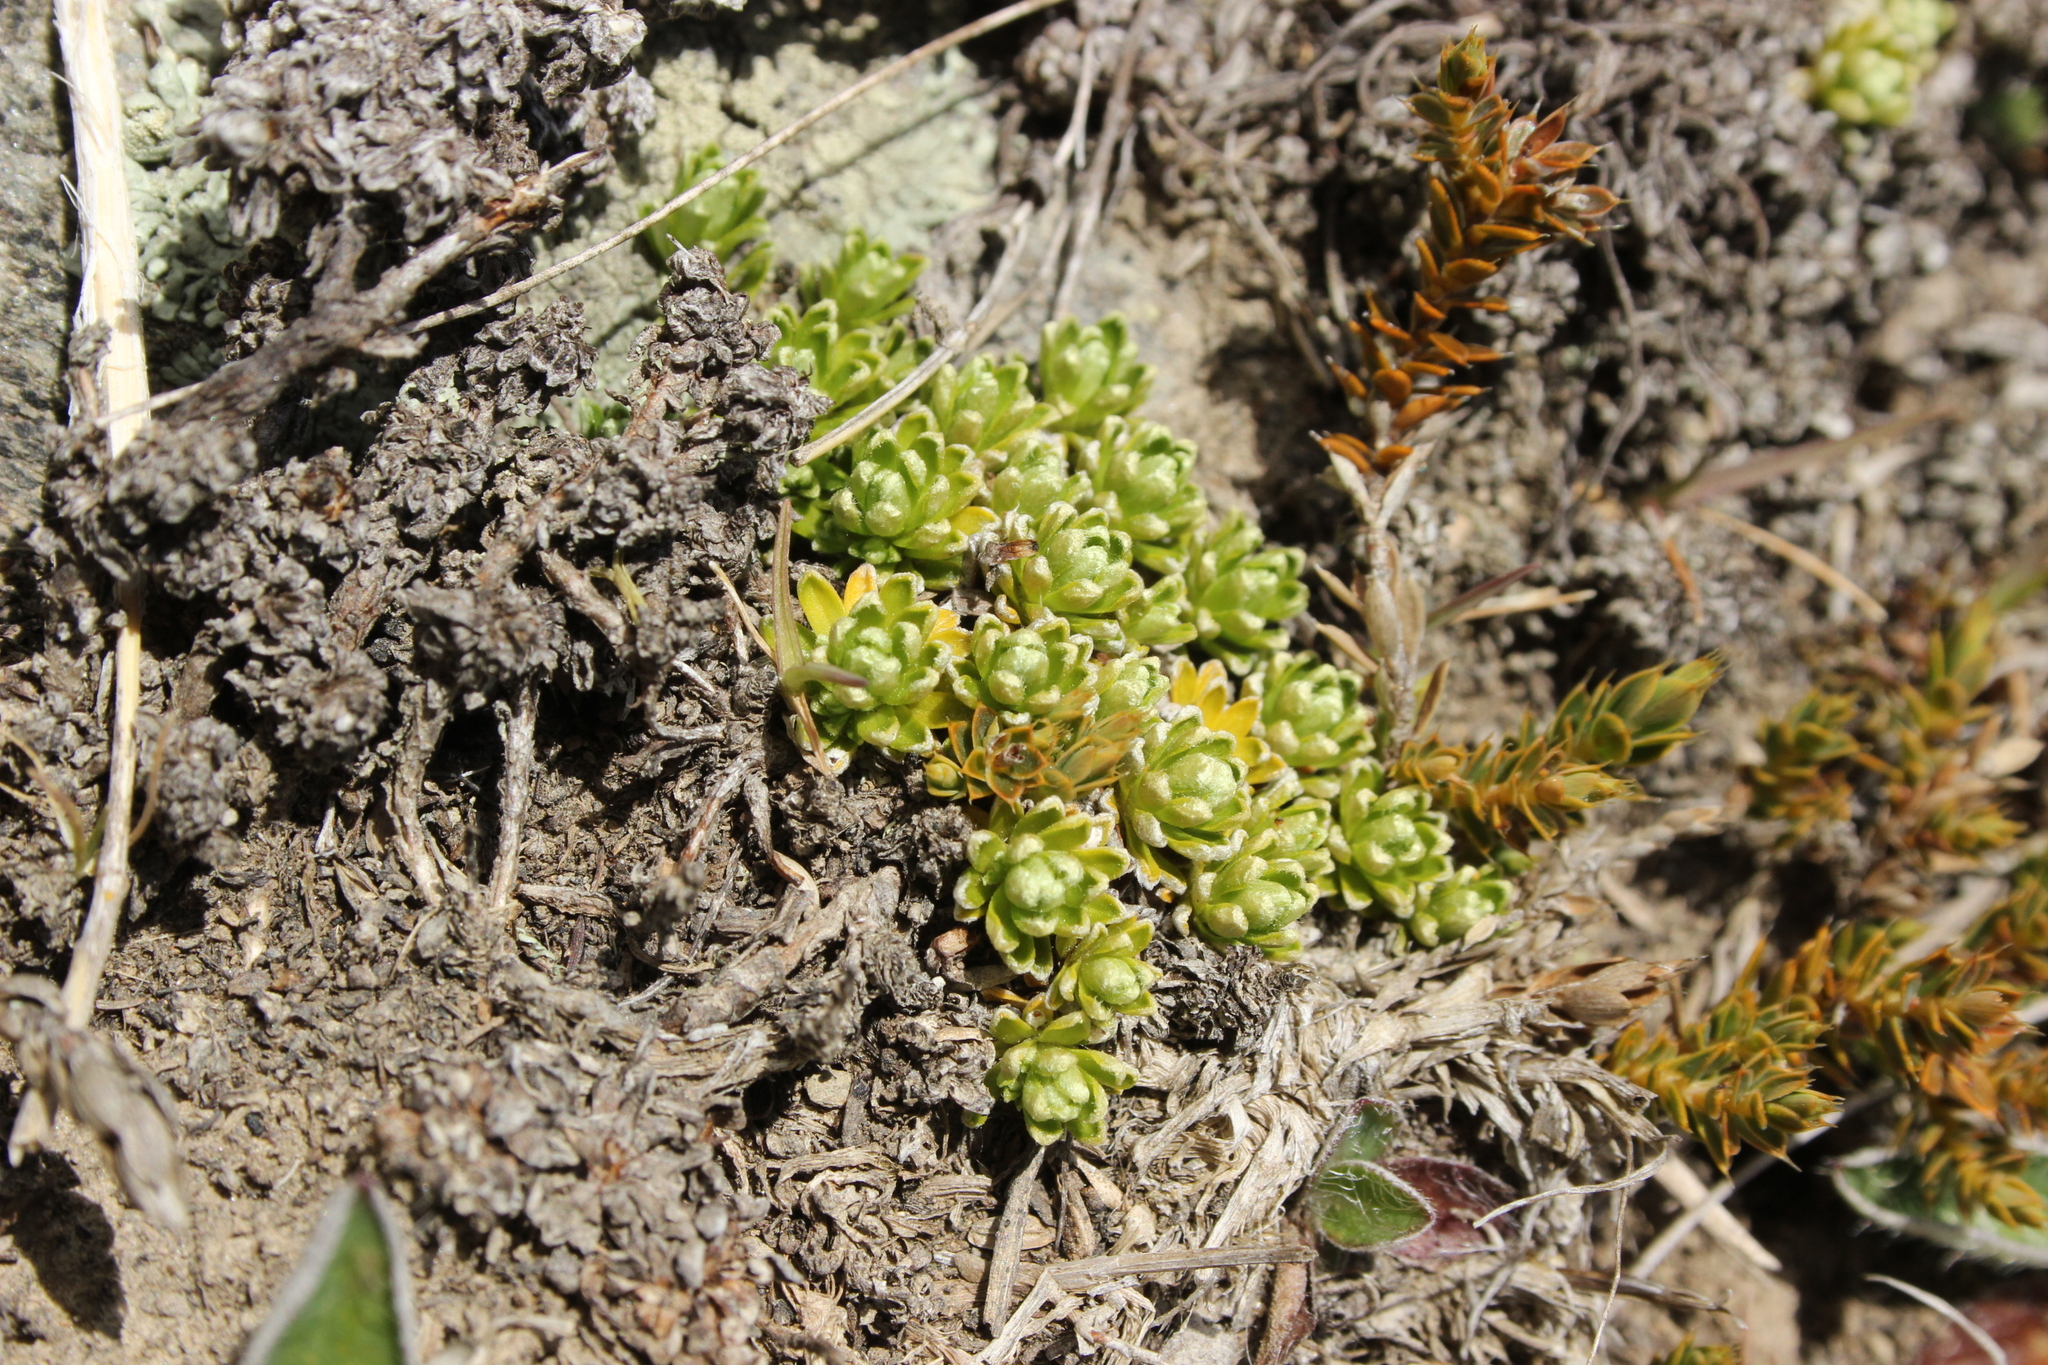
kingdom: Plantae
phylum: Tracheophyta
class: Magnoliopsida
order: Asterales
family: Asteraceae
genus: Raoulia
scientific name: Raoulia subsericea
